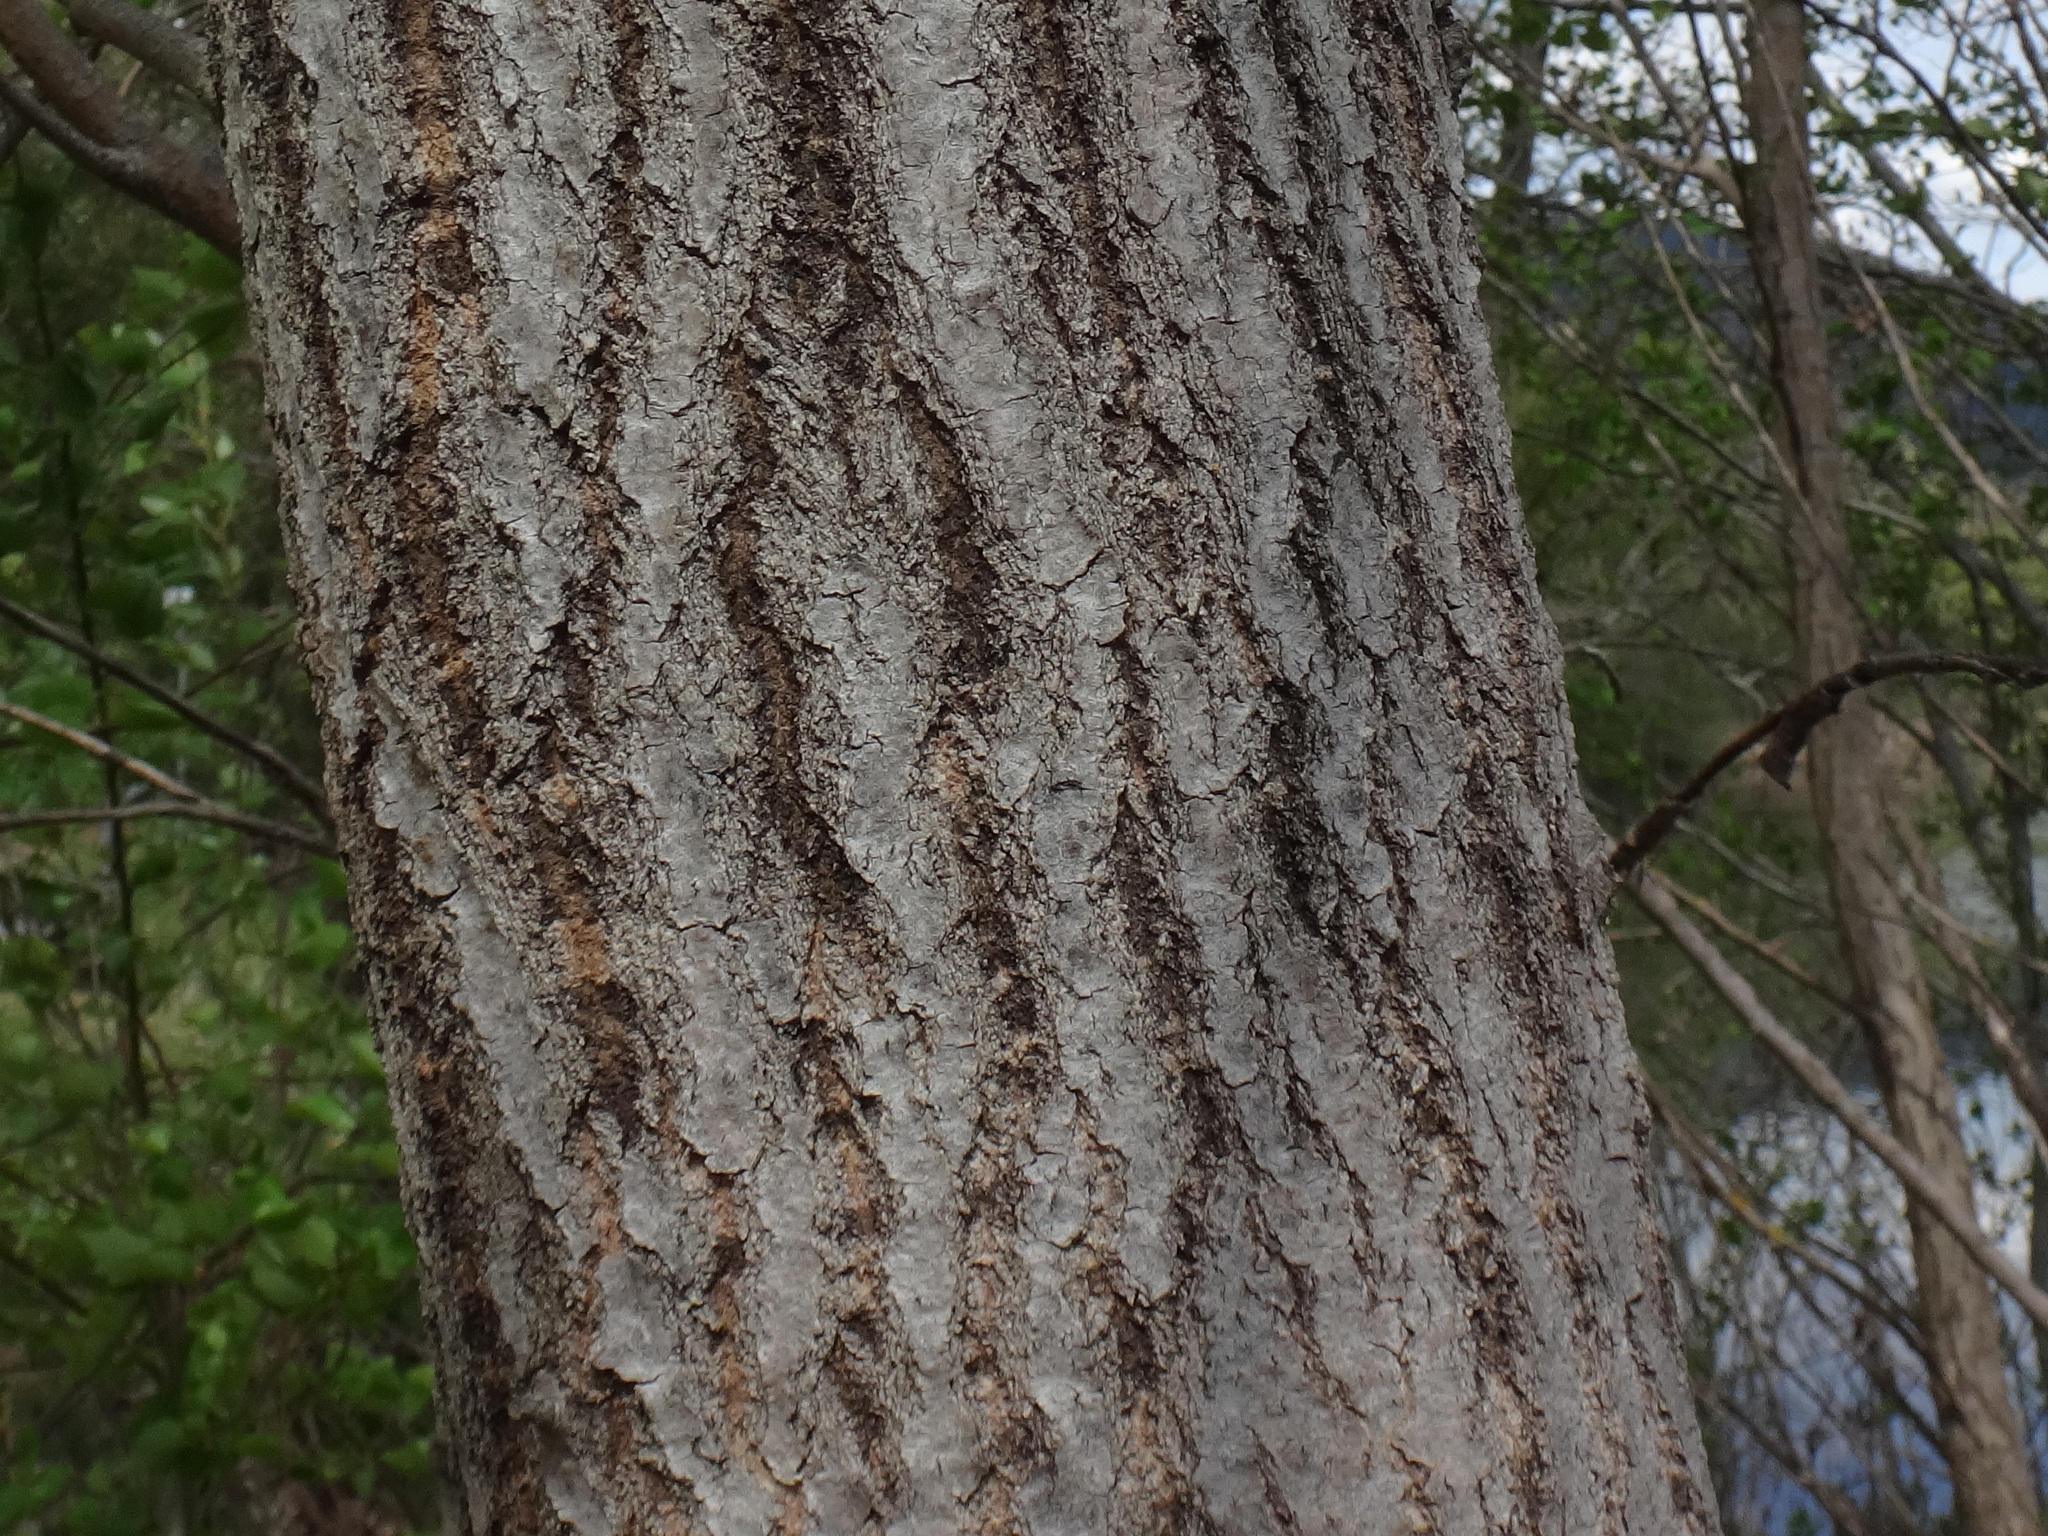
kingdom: Plantae
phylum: Tracheophyta
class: Magnoliopsida
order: Malpighiales
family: Salicaceae
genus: Populus
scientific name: Populus tremula
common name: European aspen
